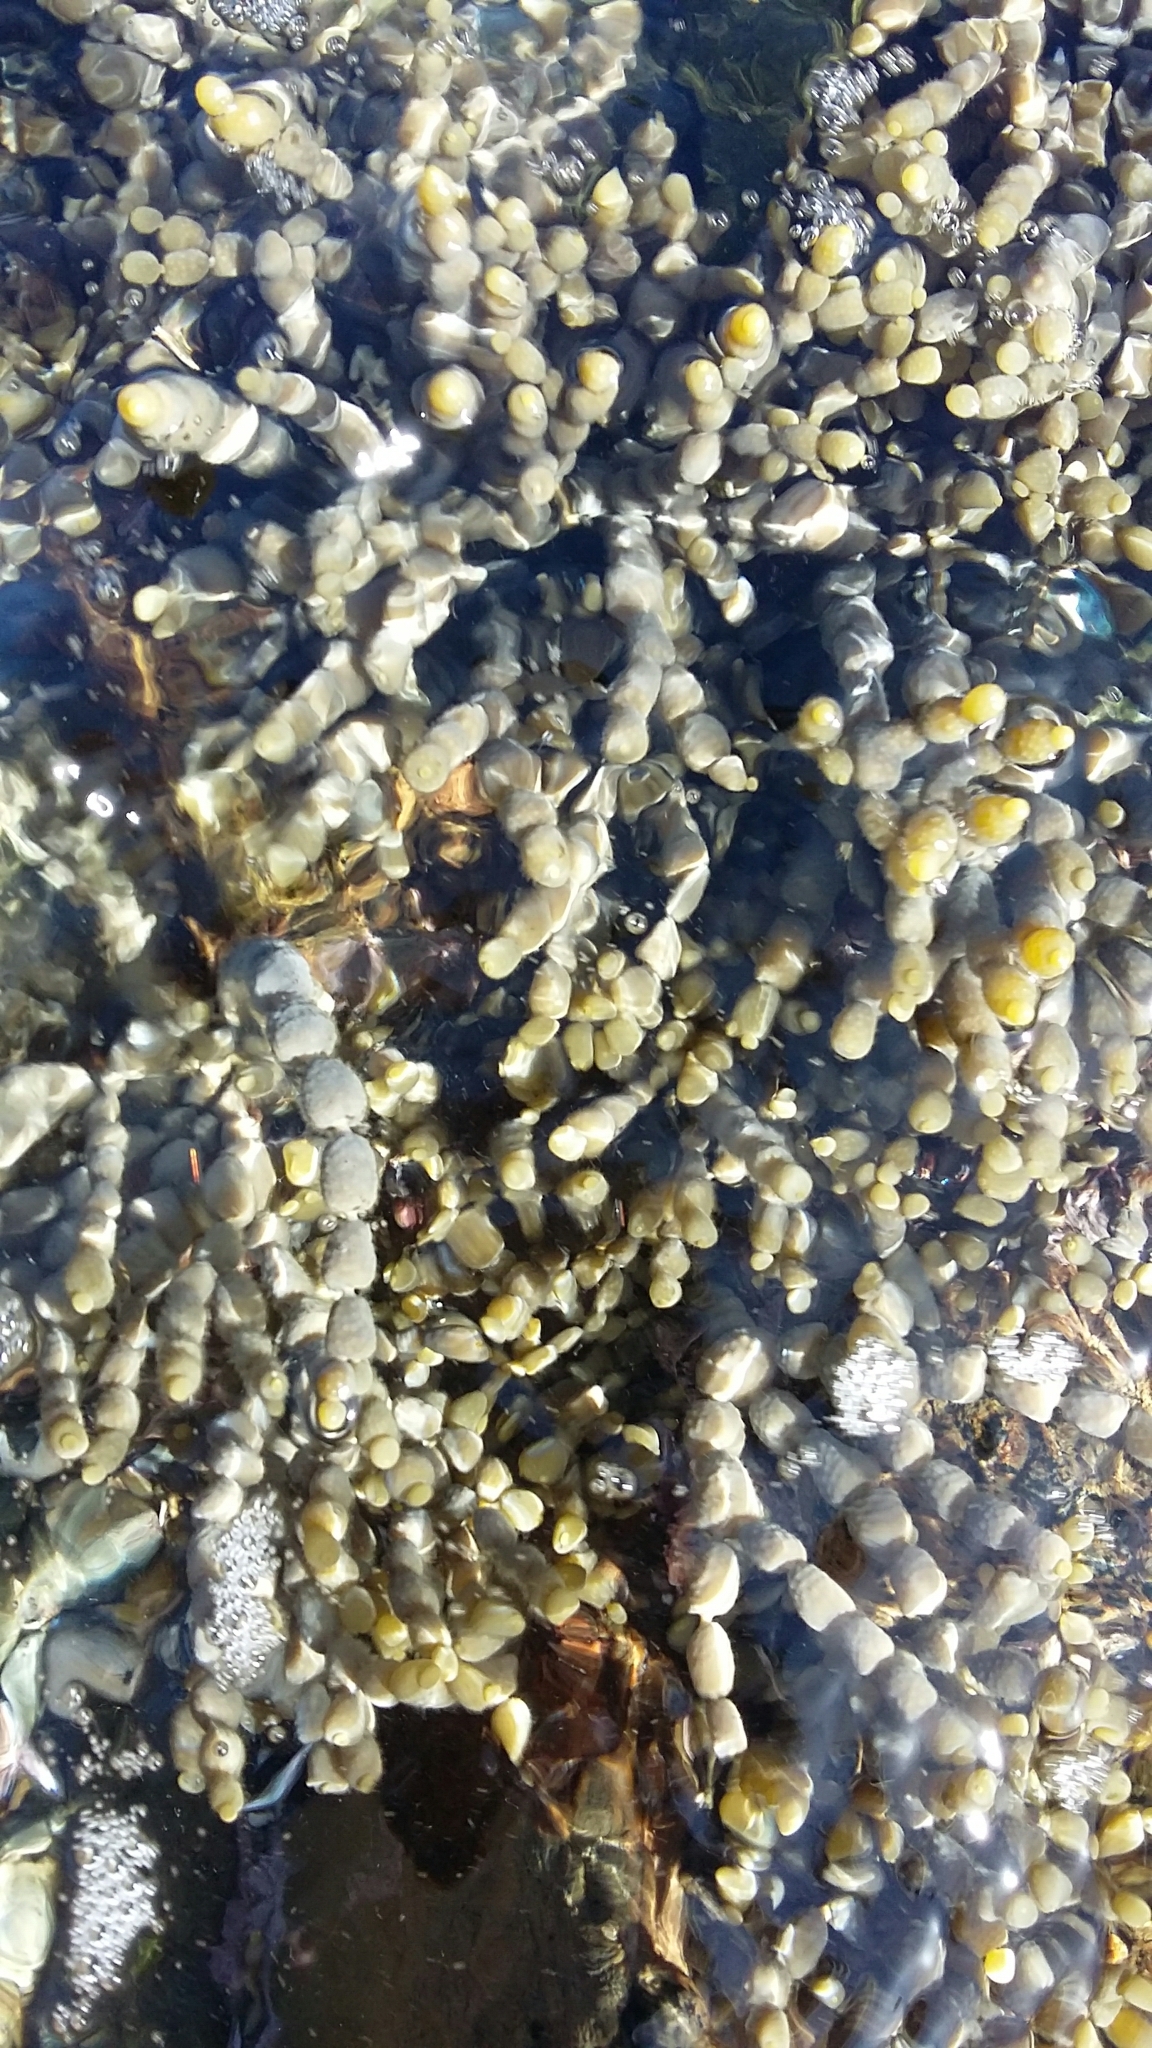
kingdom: Chromista
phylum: Ochrophyta
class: Phaeophyceae
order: Fucales
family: Hormosiraceae
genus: Hormosira
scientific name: Hormosira banksii
